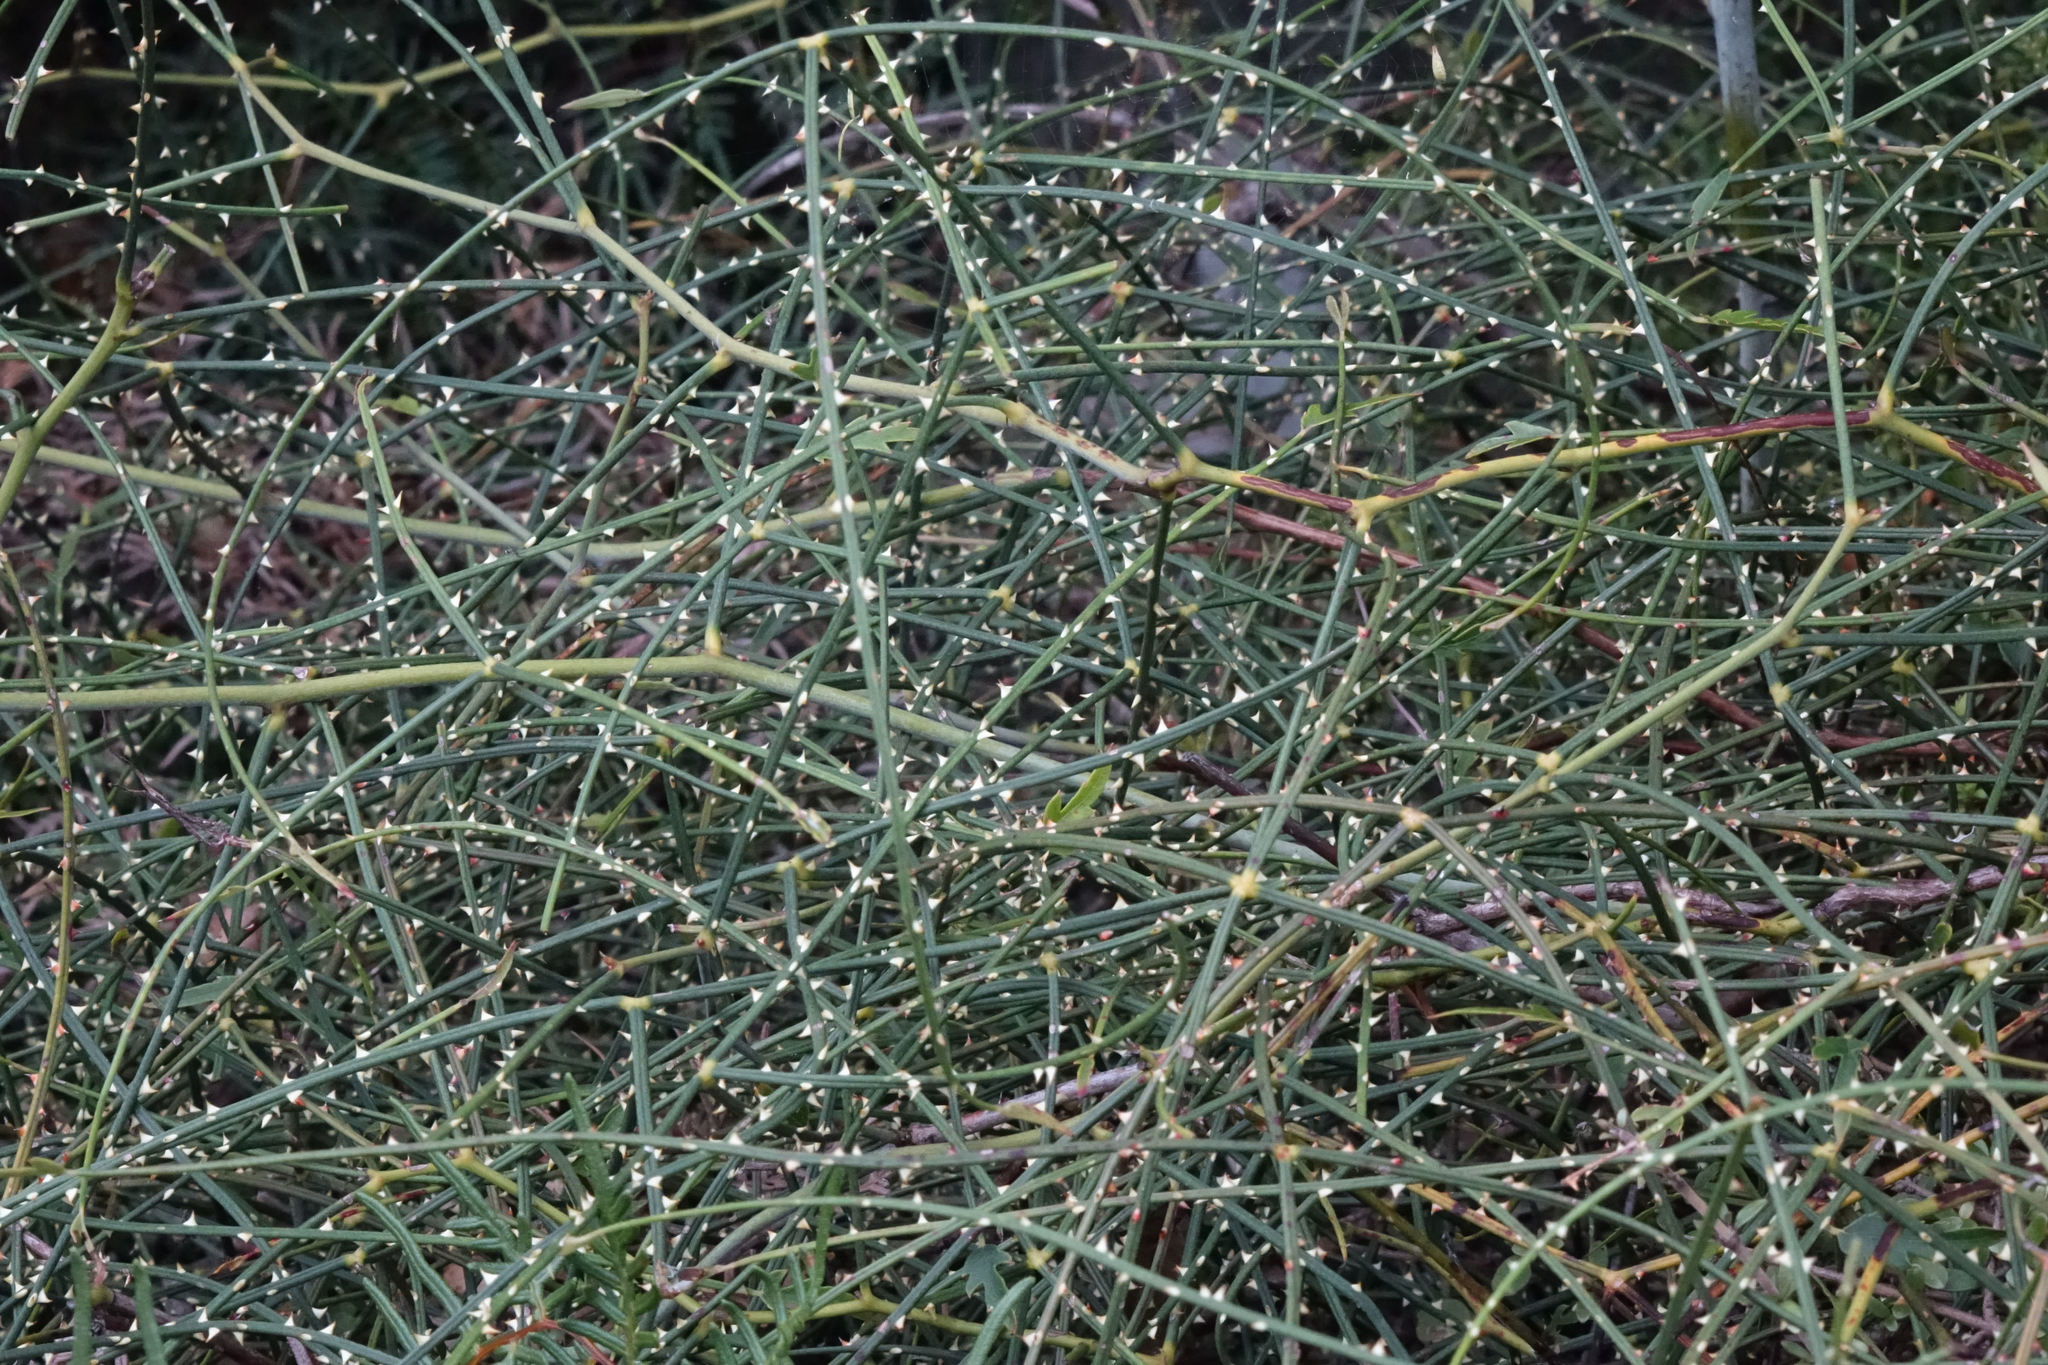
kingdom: Plantae
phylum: Tracheophyta
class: Magnoliopsida
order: Rosales
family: Rosaceae
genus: Rubus
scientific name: Rubus squarrosus
